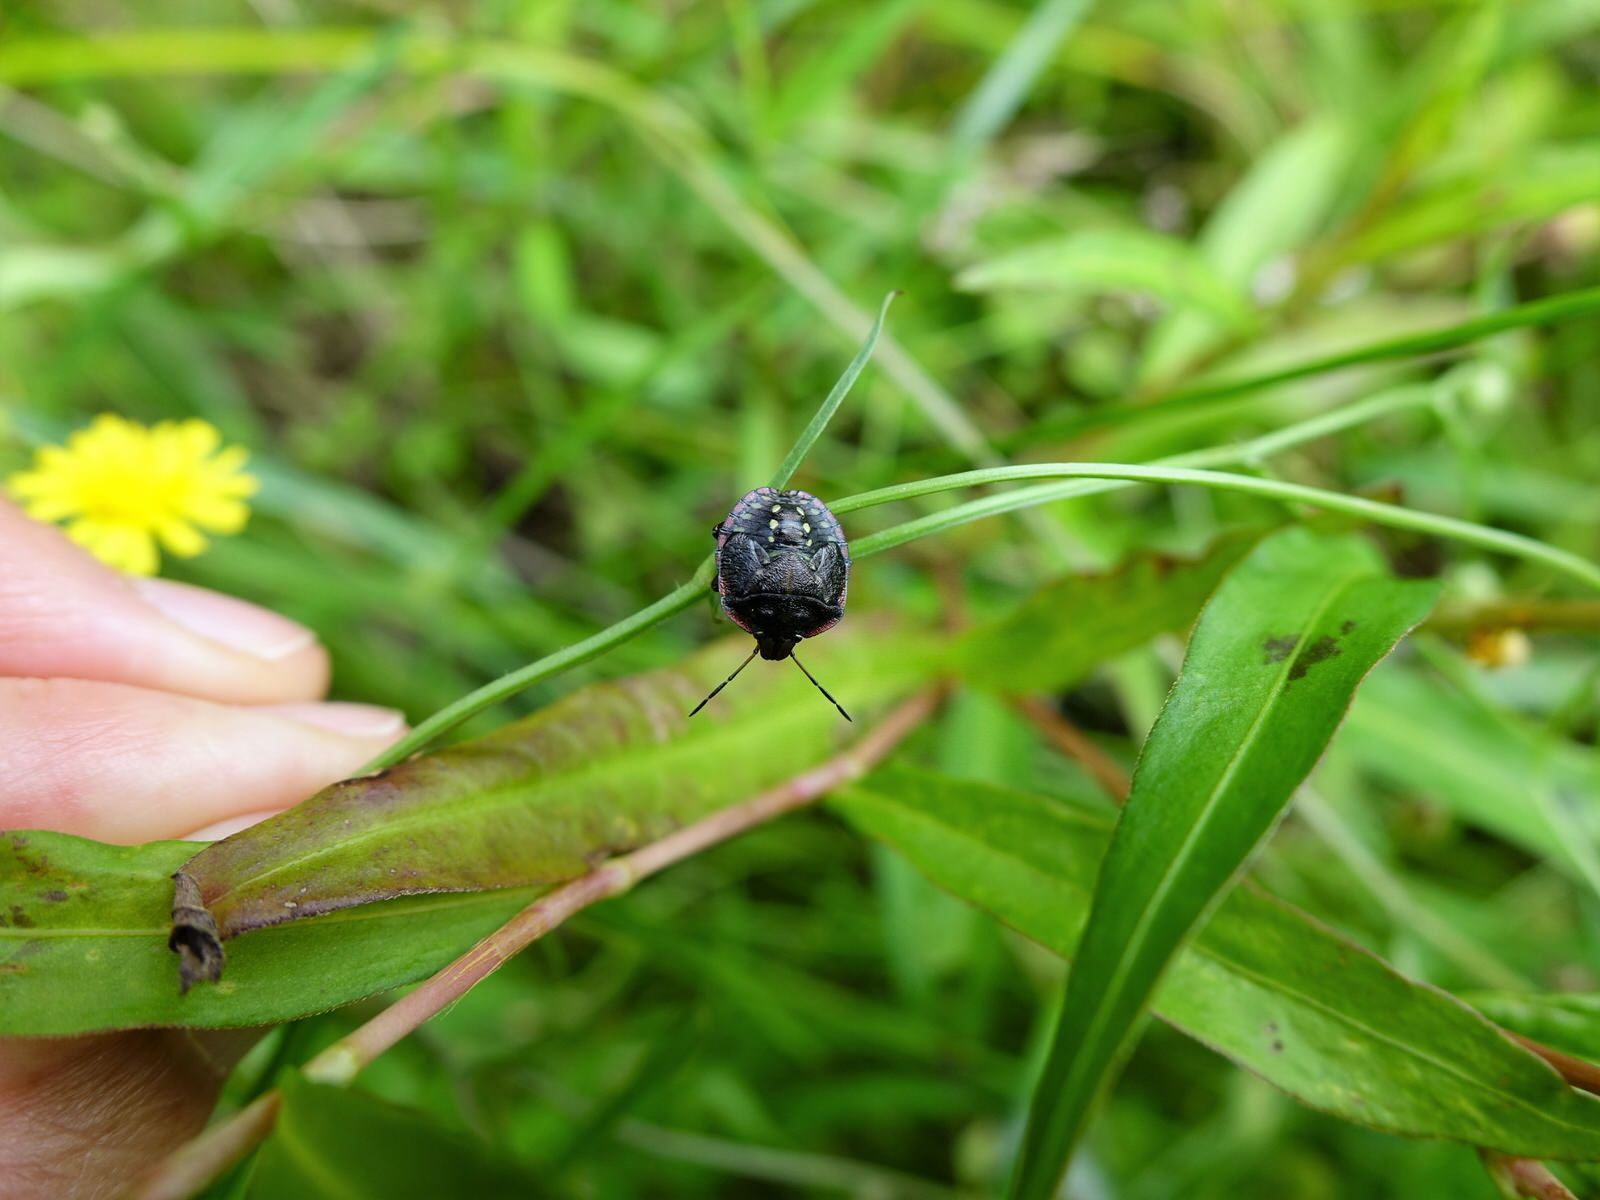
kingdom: Animalia
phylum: Arthropoda
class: Insecta
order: Hemiptera
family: Pentatomidae
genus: Nezara
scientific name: Nezara viridula
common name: Southern green stink bug
